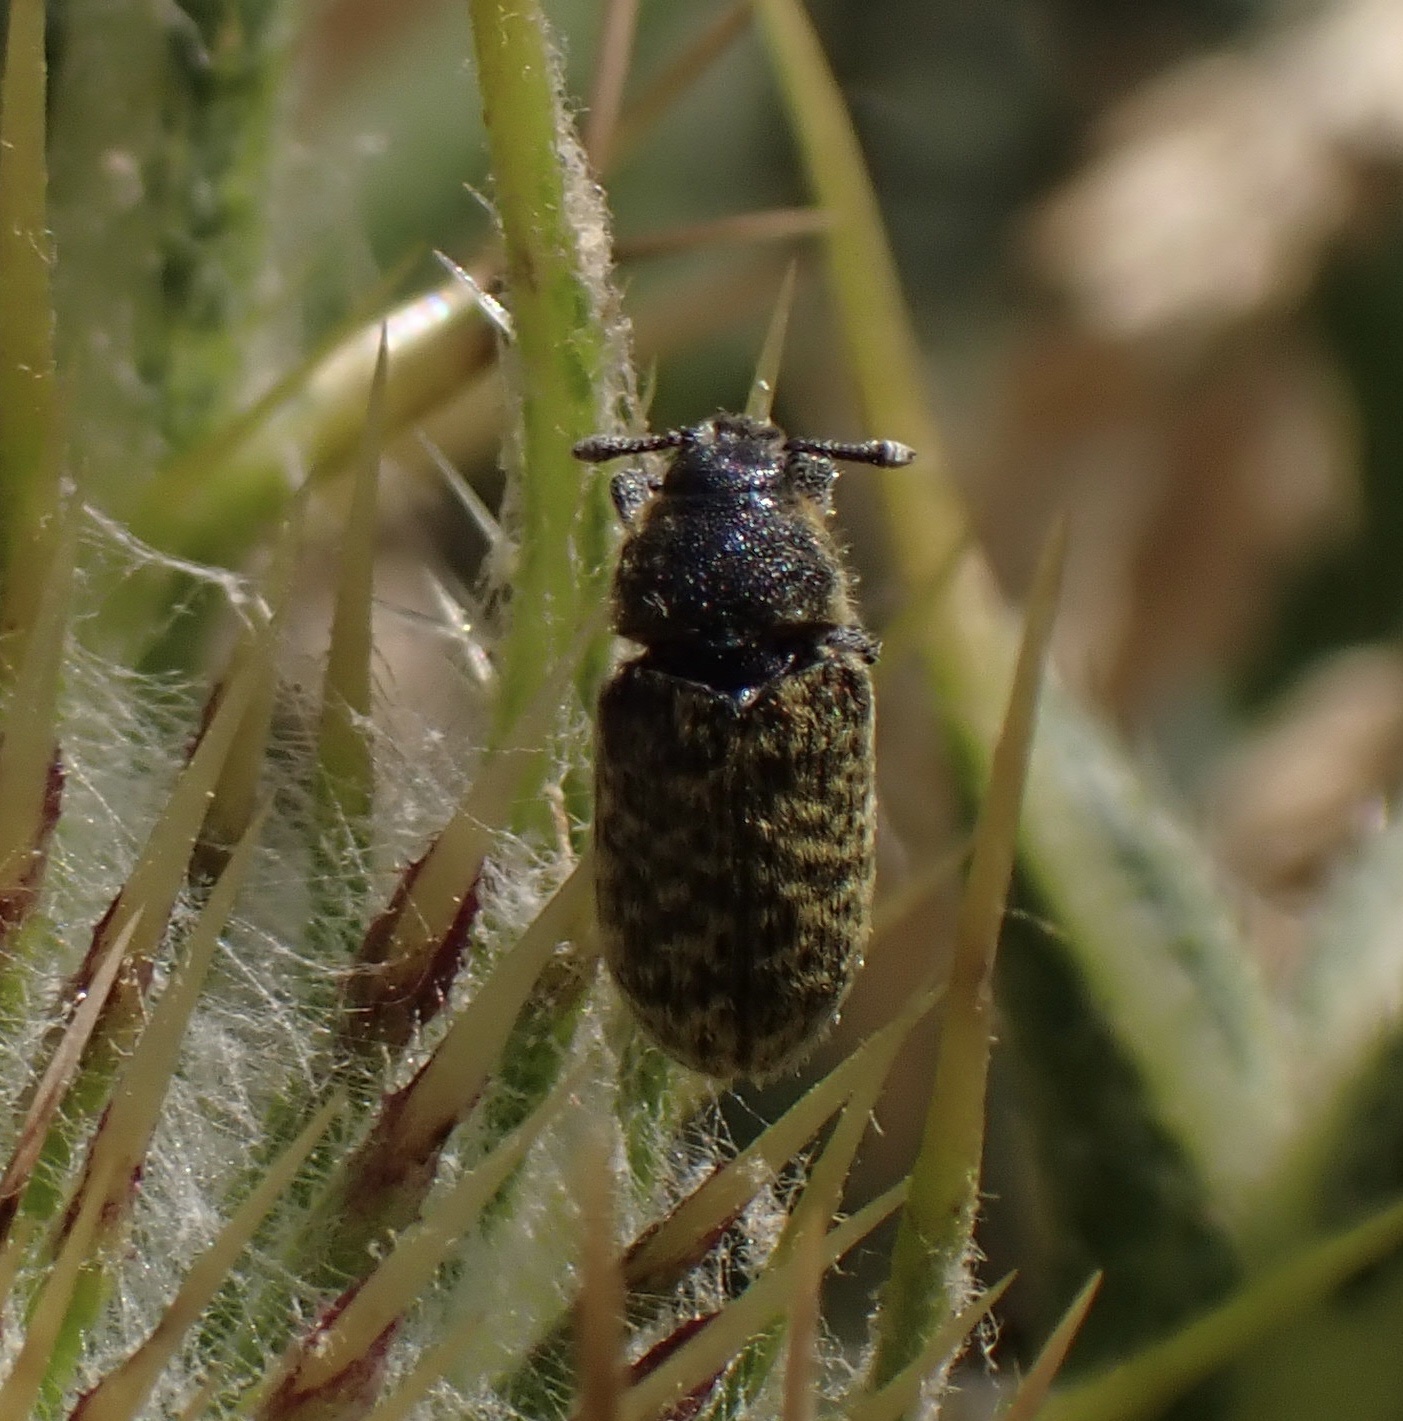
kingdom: Animalia
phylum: Arthropoda
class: Insecta
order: Coleoptera
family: Curculionidae
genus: Rhinocyllus
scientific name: Rhinocyllus conicus
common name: Weevil
